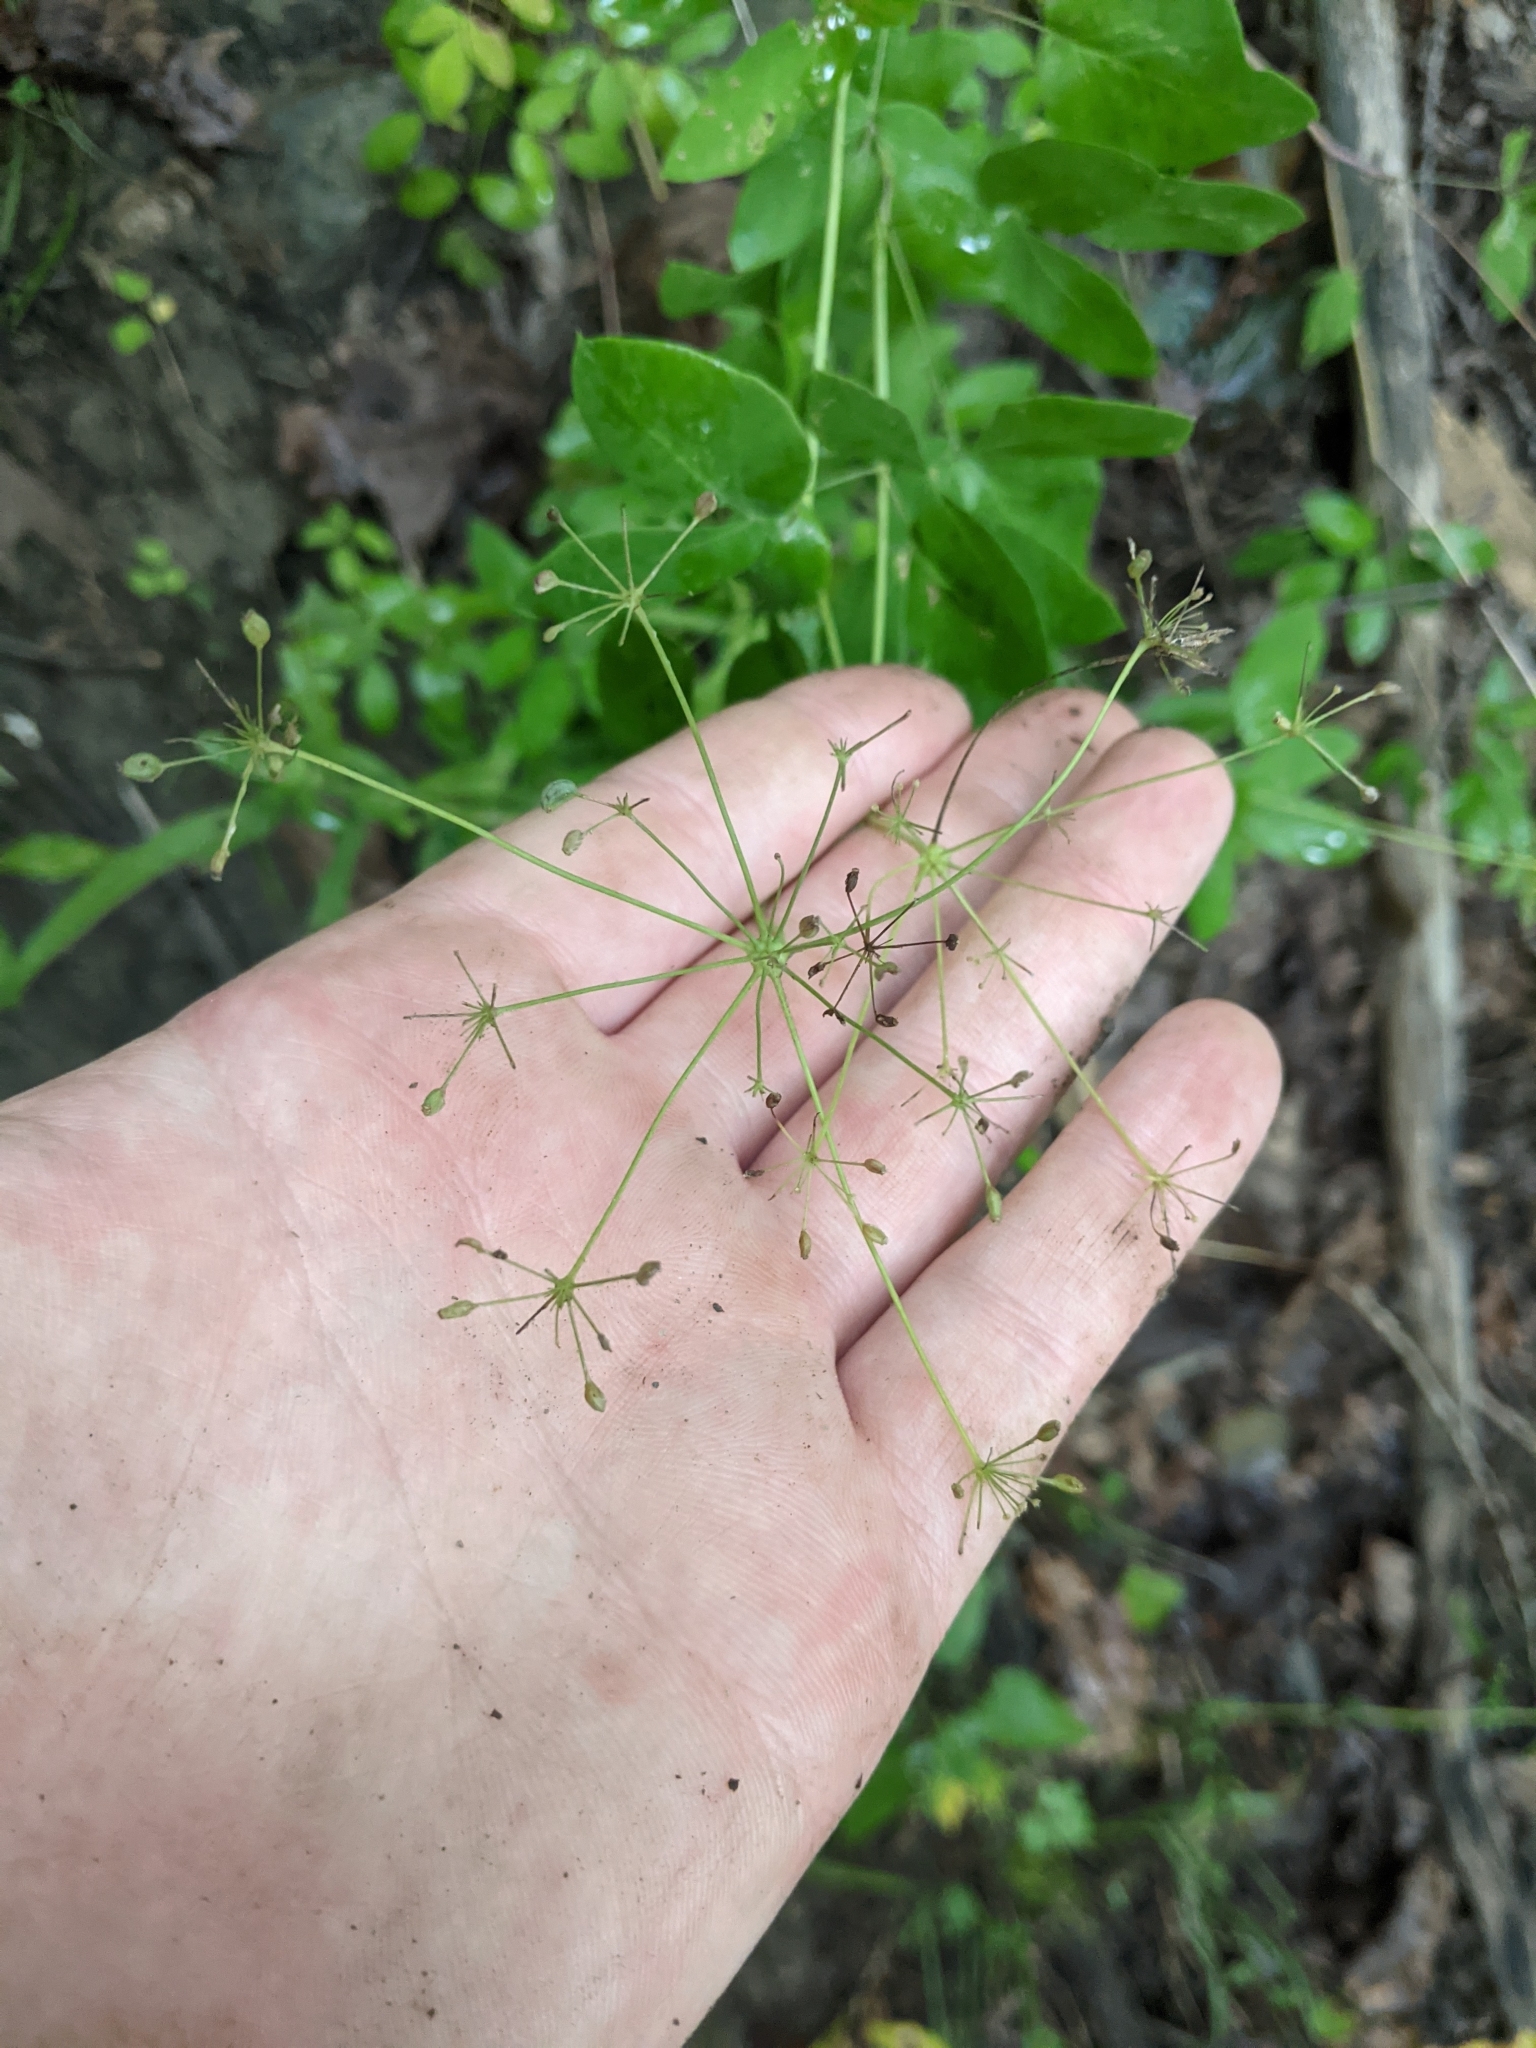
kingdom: Plantae
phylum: Tracheophyta
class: Magnoliopsida
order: Apiales
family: Apiaceae
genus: Taenidia
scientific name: Taenidia integerrima
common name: Golden alexander
